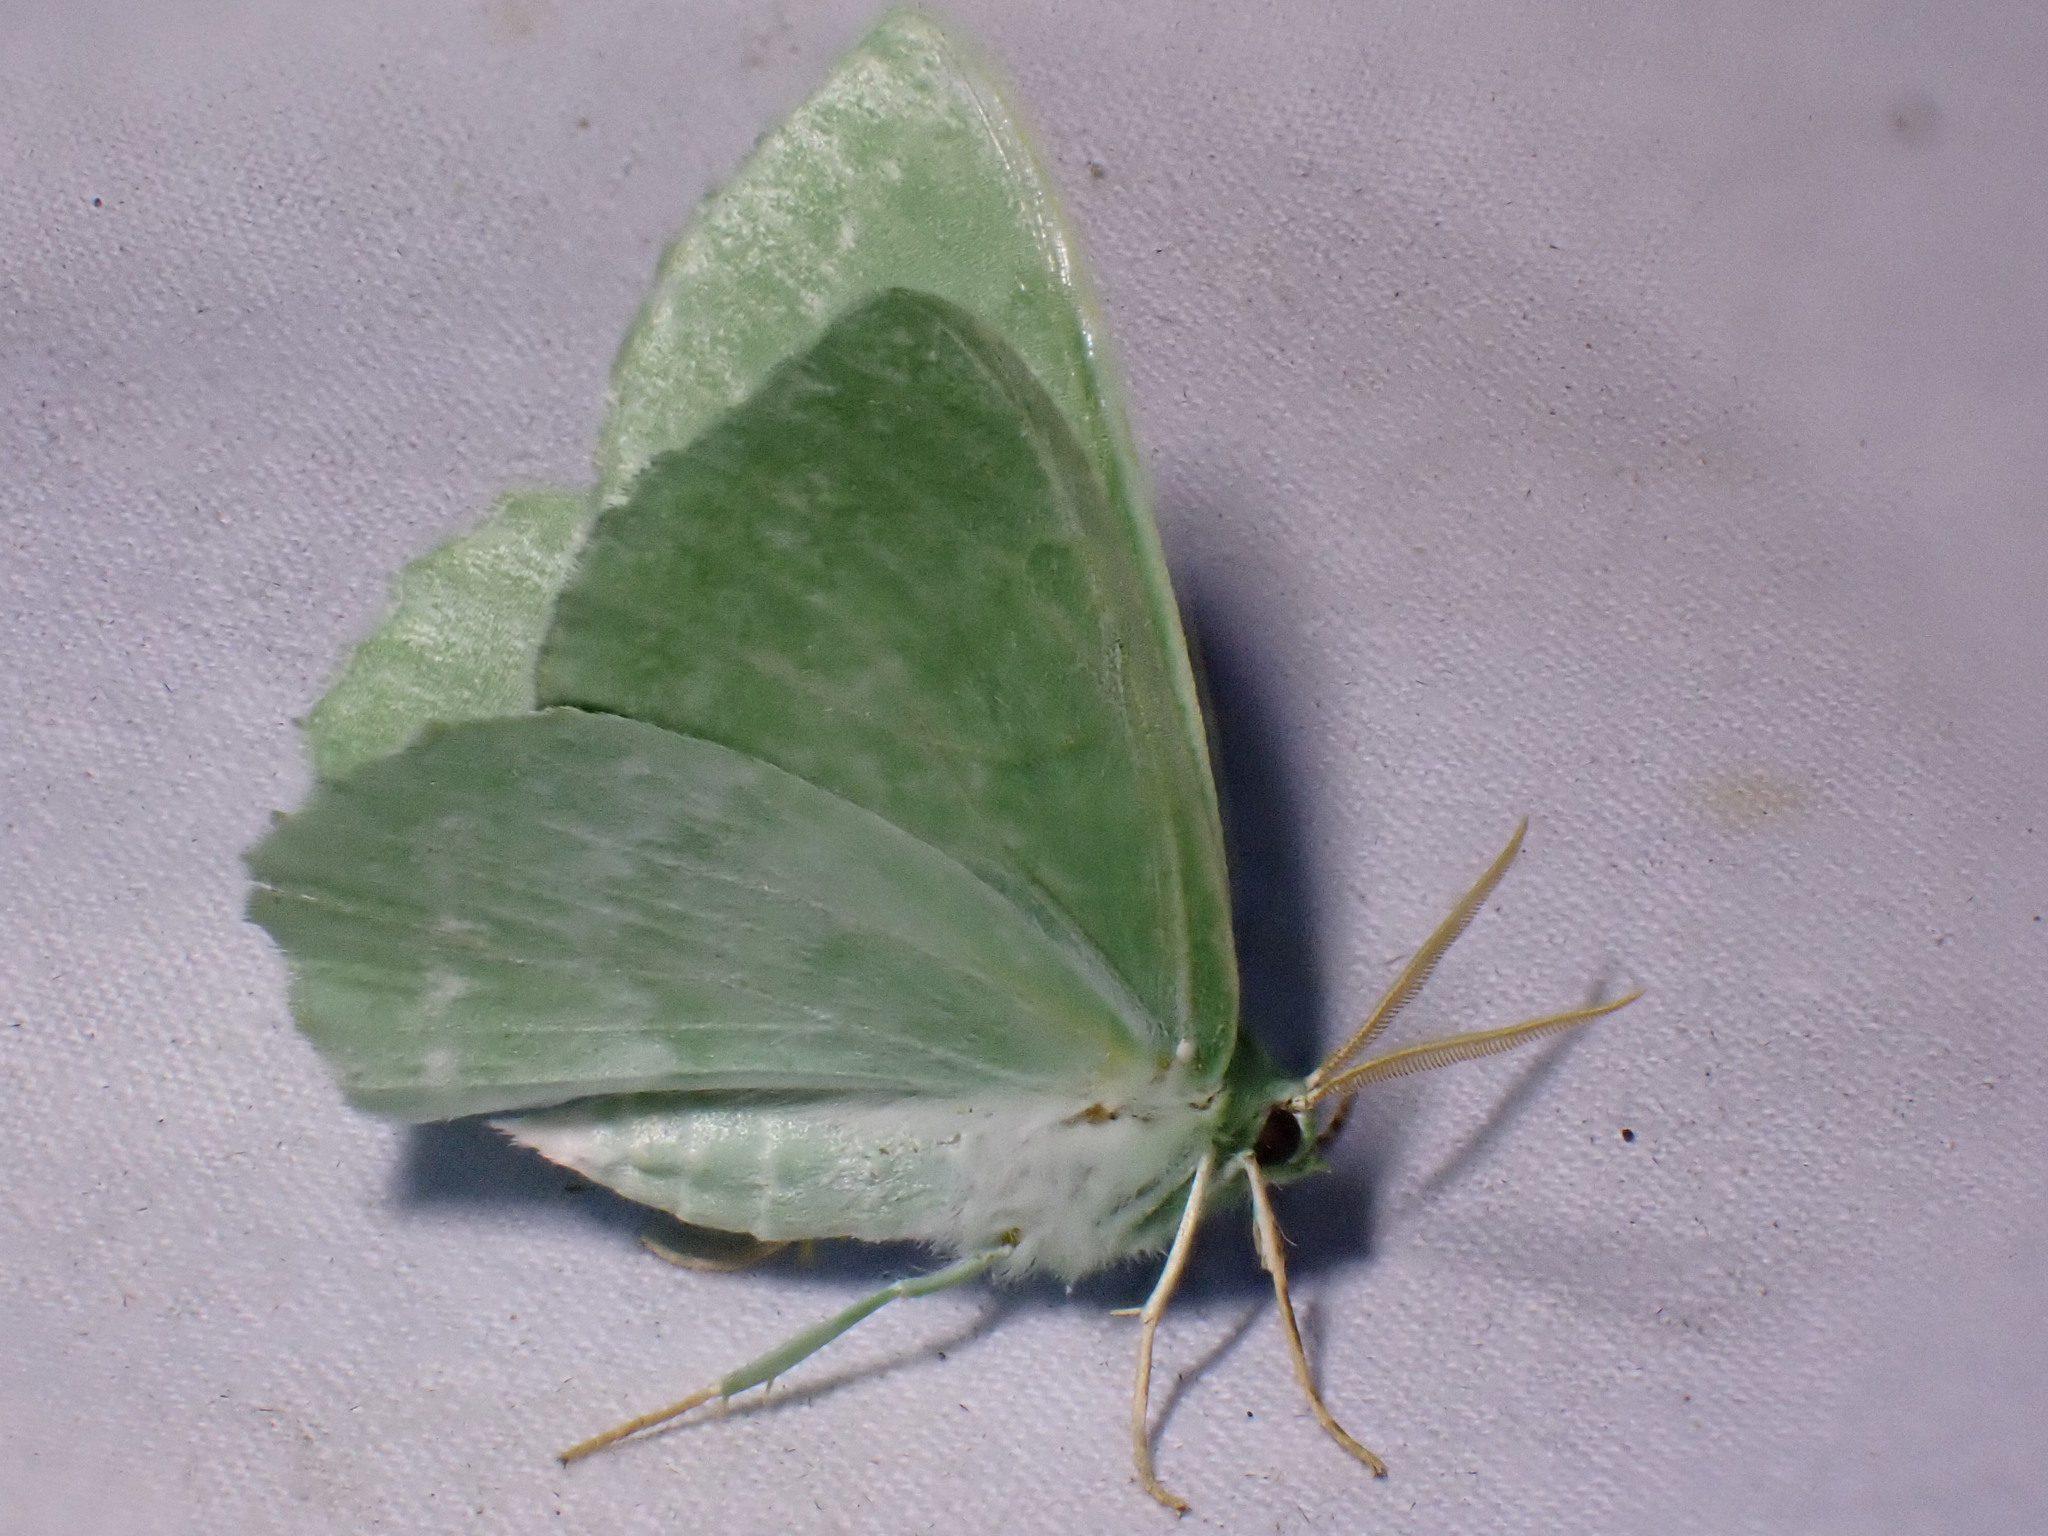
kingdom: Animalia
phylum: Arthropoda
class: Insecta
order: Lepidoptera
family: Geometridae
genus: Geometra
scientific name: Geometra papilionaria
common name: Large emerald
